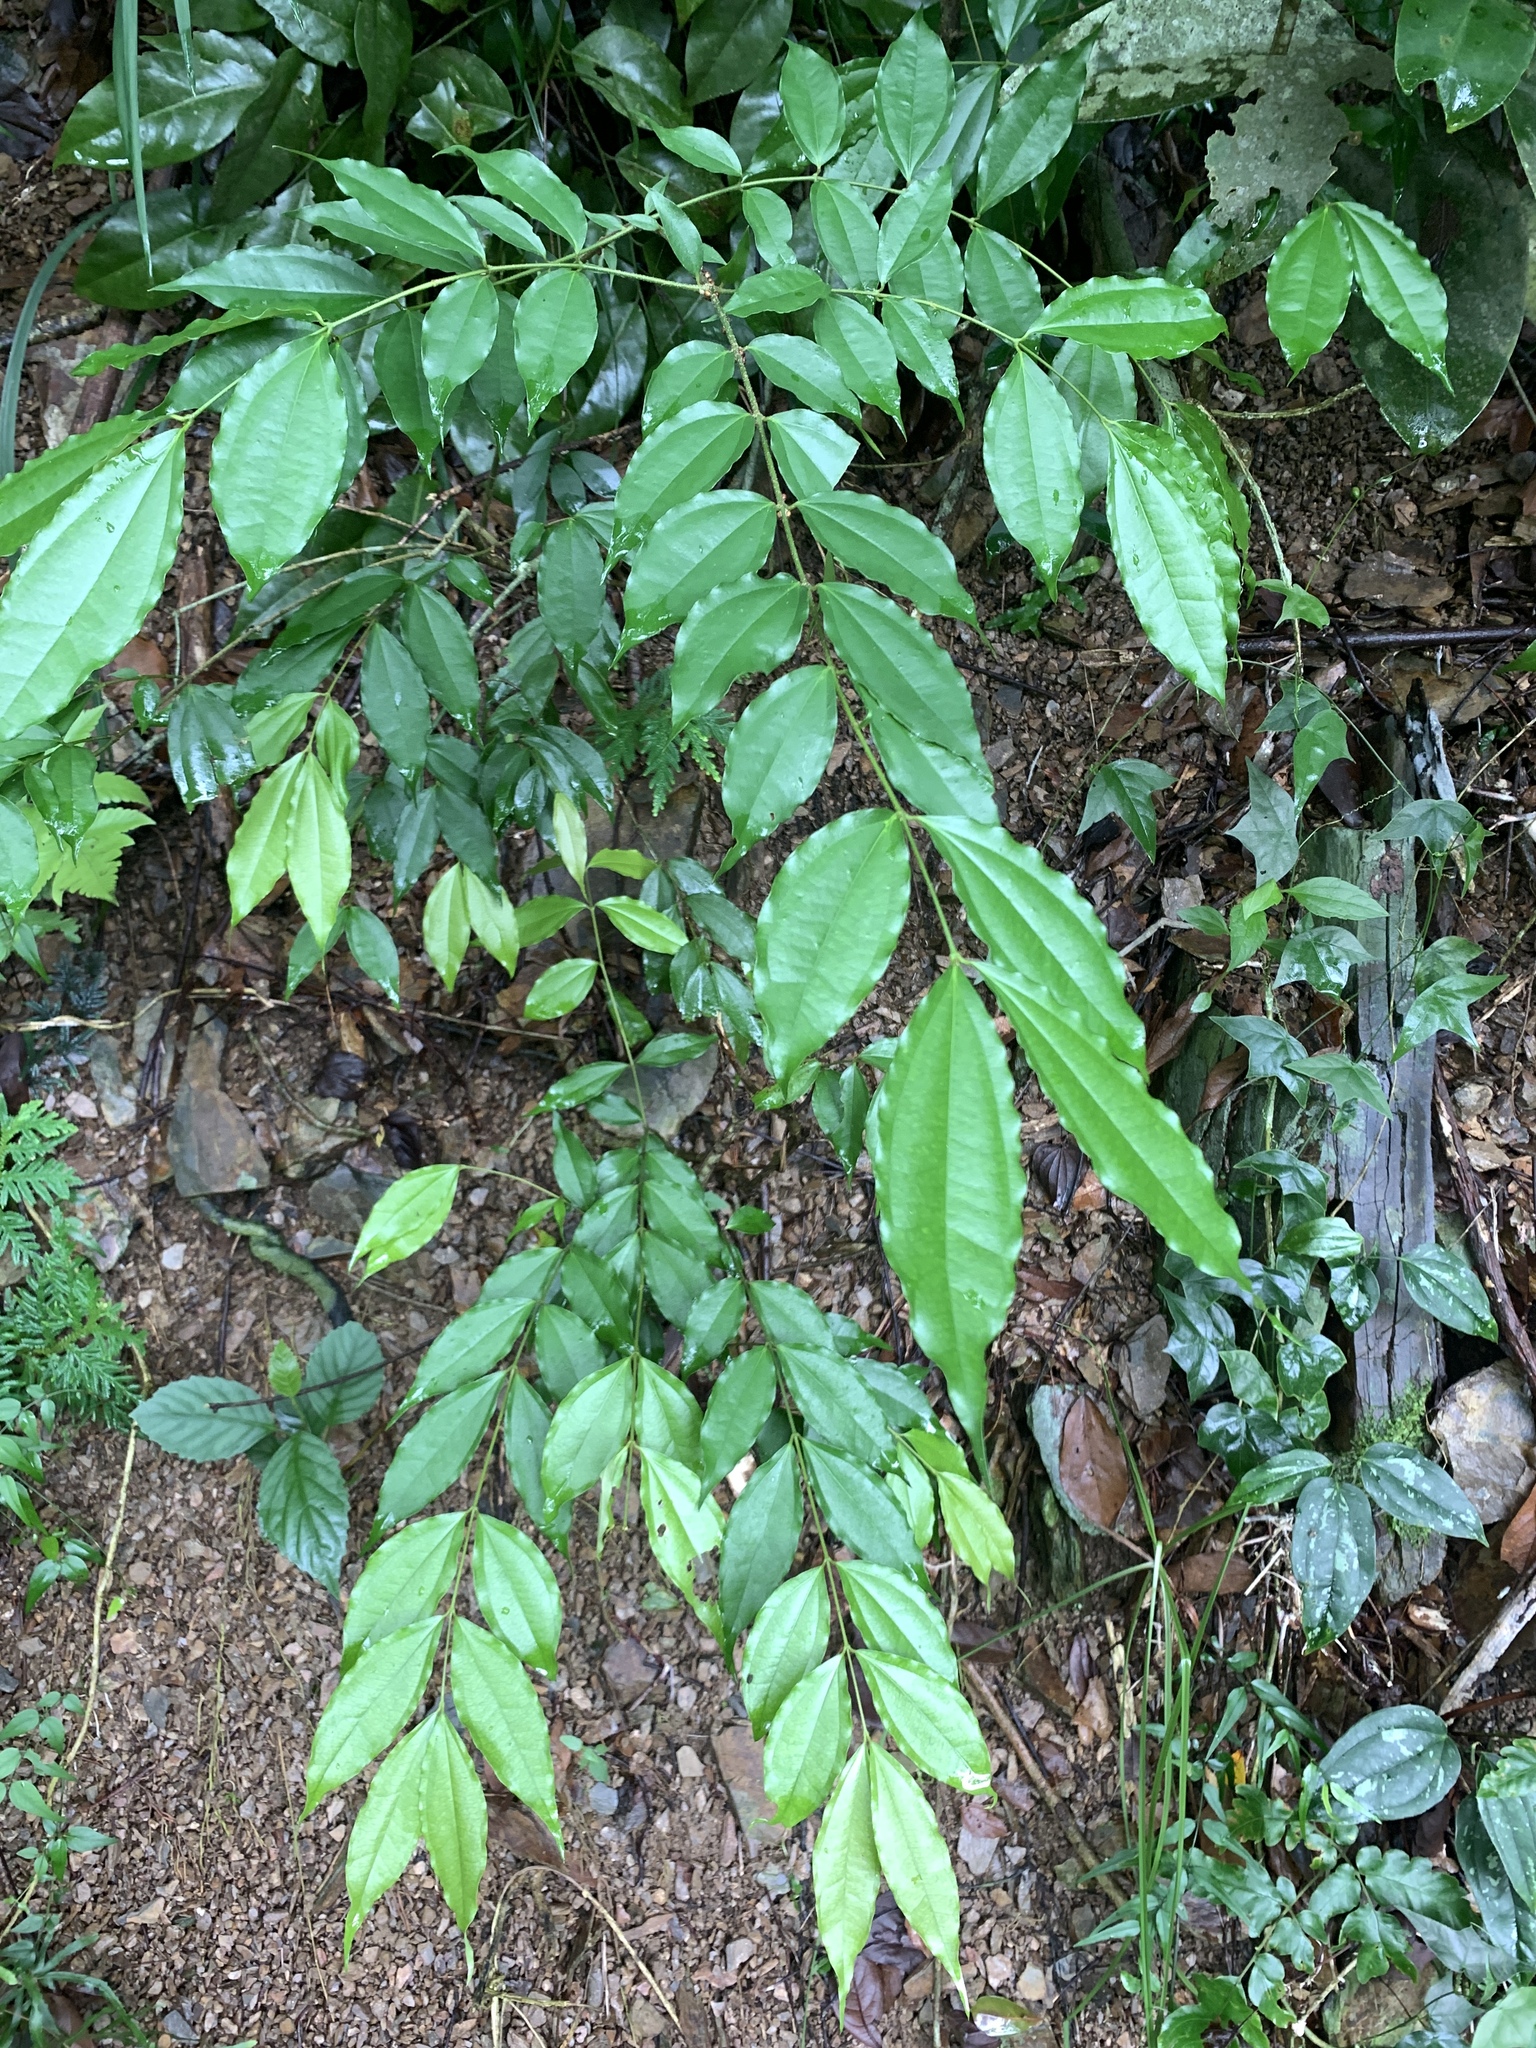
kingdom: Plantae
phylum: Tracheophyta
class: Magnoliopsida
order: Gentianales
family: Loganiaceae
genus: Strychnos
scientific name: Strychnos cathayensis
